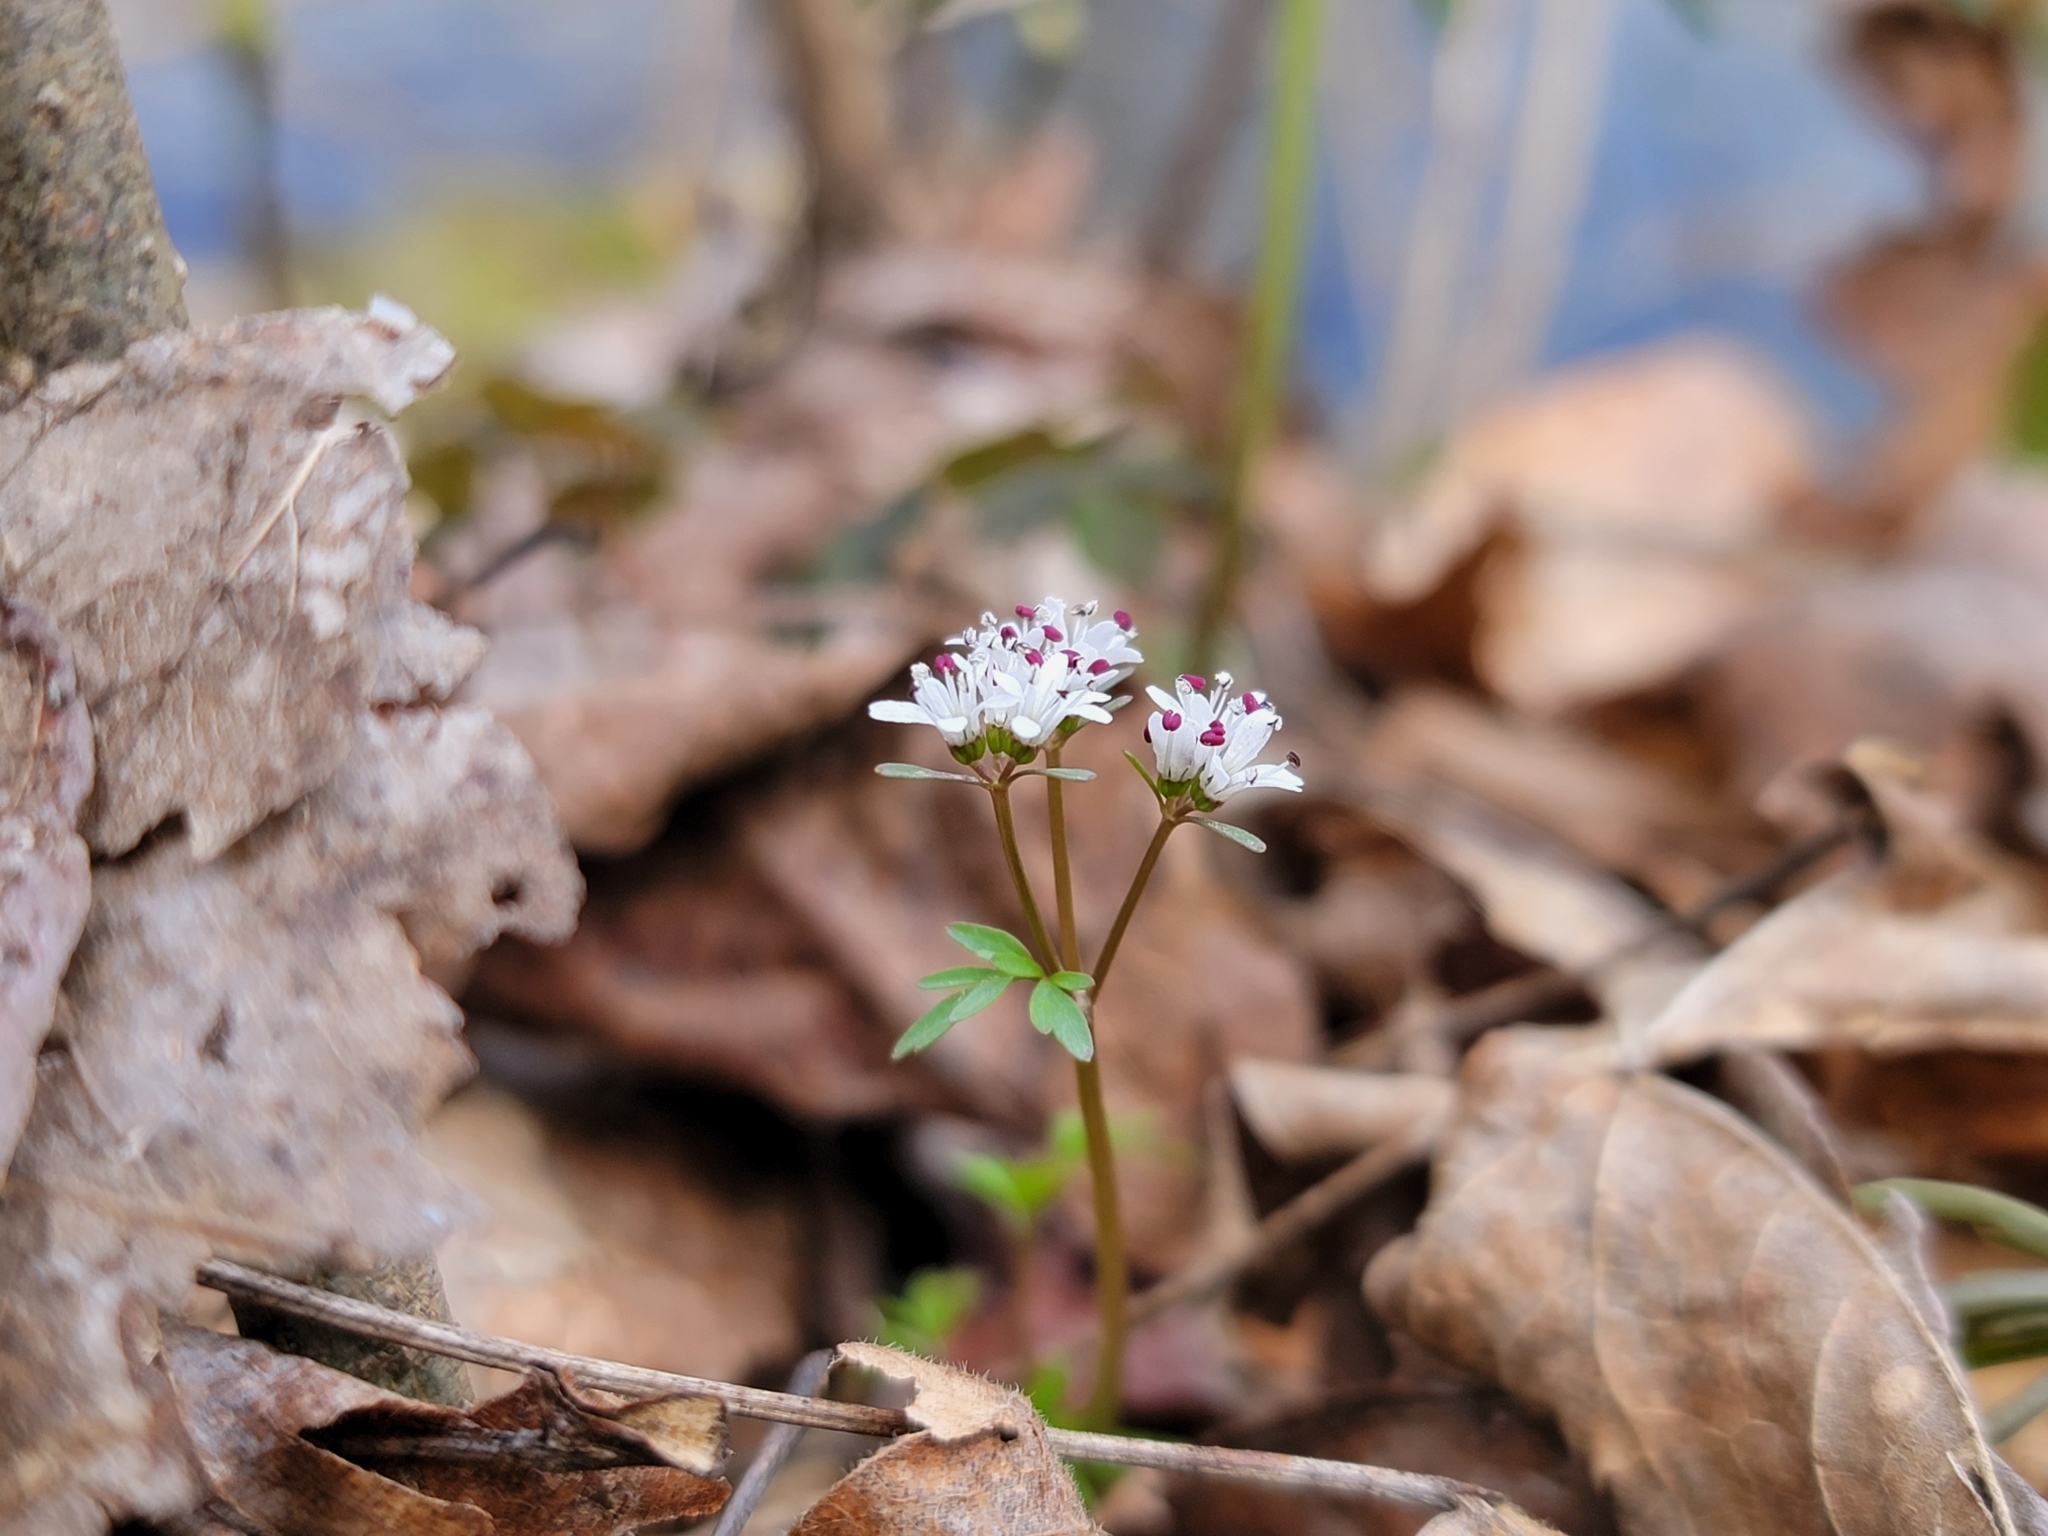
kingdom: Plantae
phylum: Tracheophyta
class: Magnoliopsida
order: Apiales
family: Apiaceae
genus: Erigenia
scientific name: Erigenia bulbosa
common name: Pepper-and-salt
